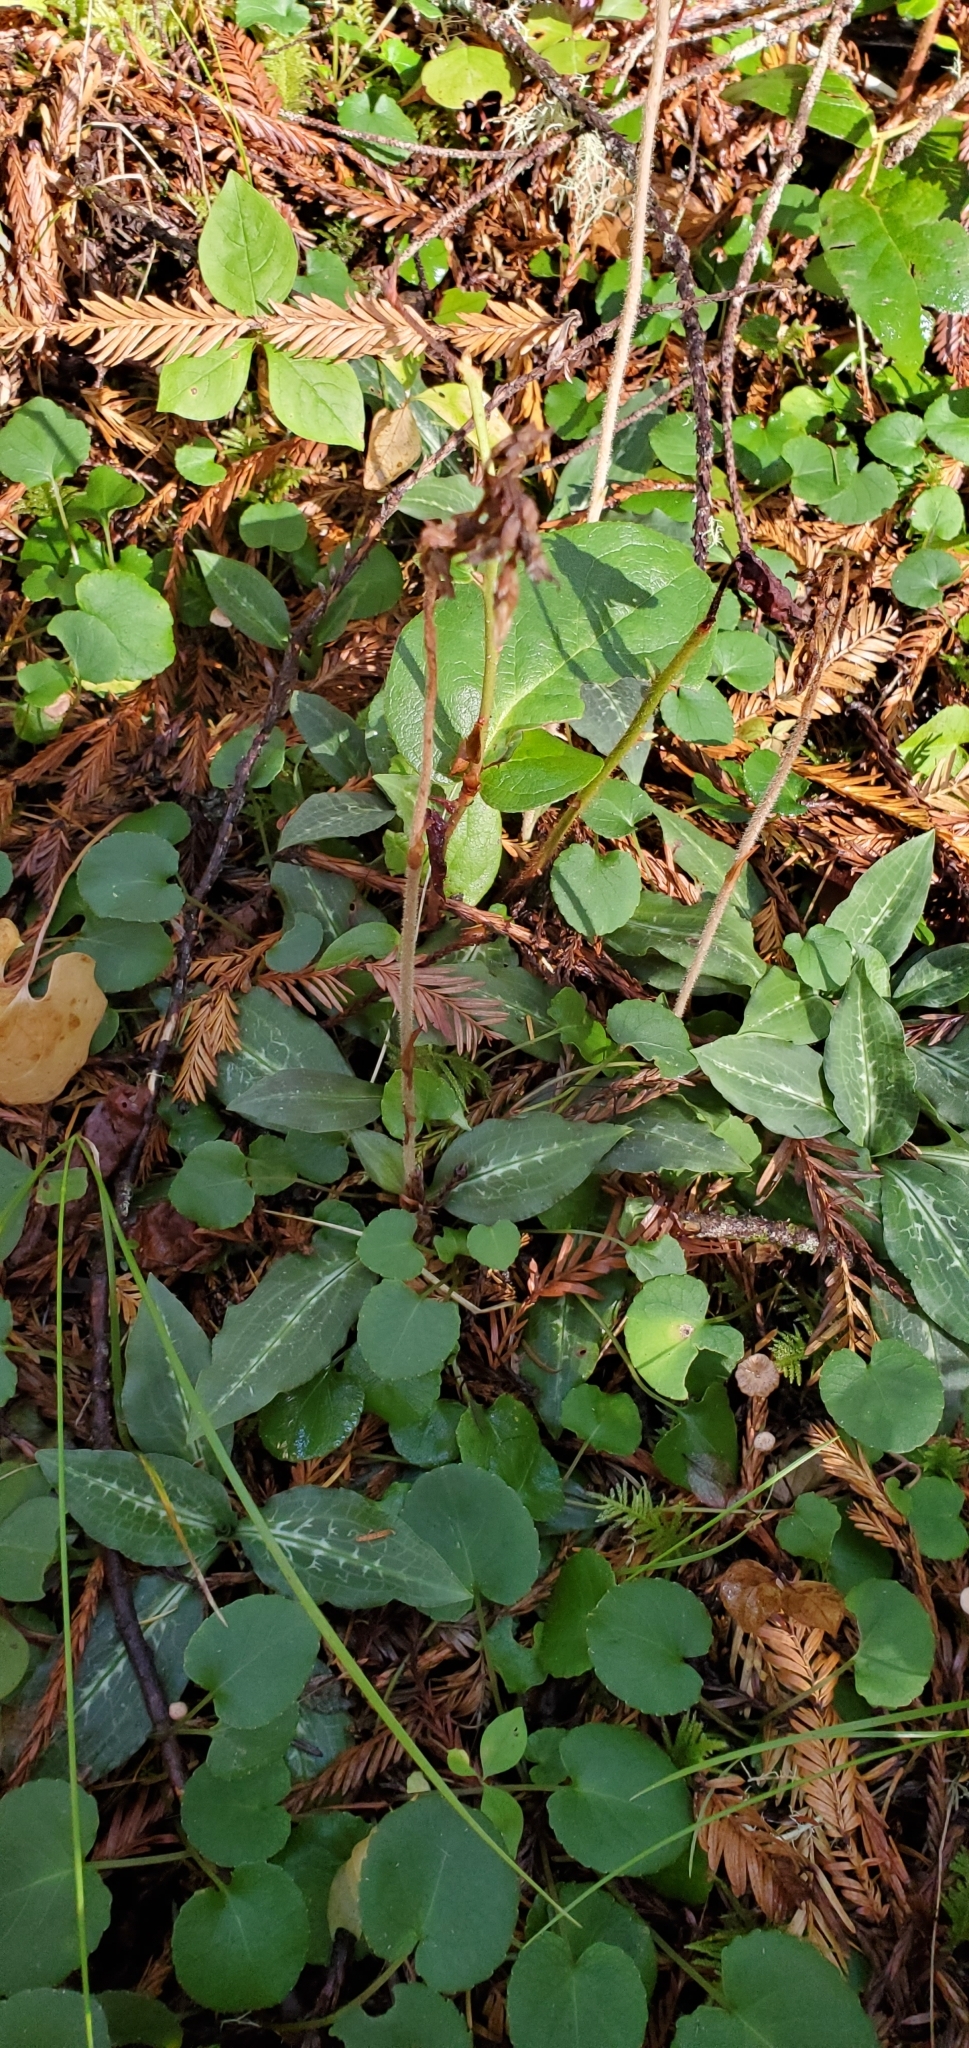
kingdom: Plantae
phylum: Tracheophyta
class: Liliopsida
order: Asparagales
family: Orchidaceae
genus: Goodyera
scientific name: Goodyera oblongifolia
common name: Giant rattlesnake-plantain
